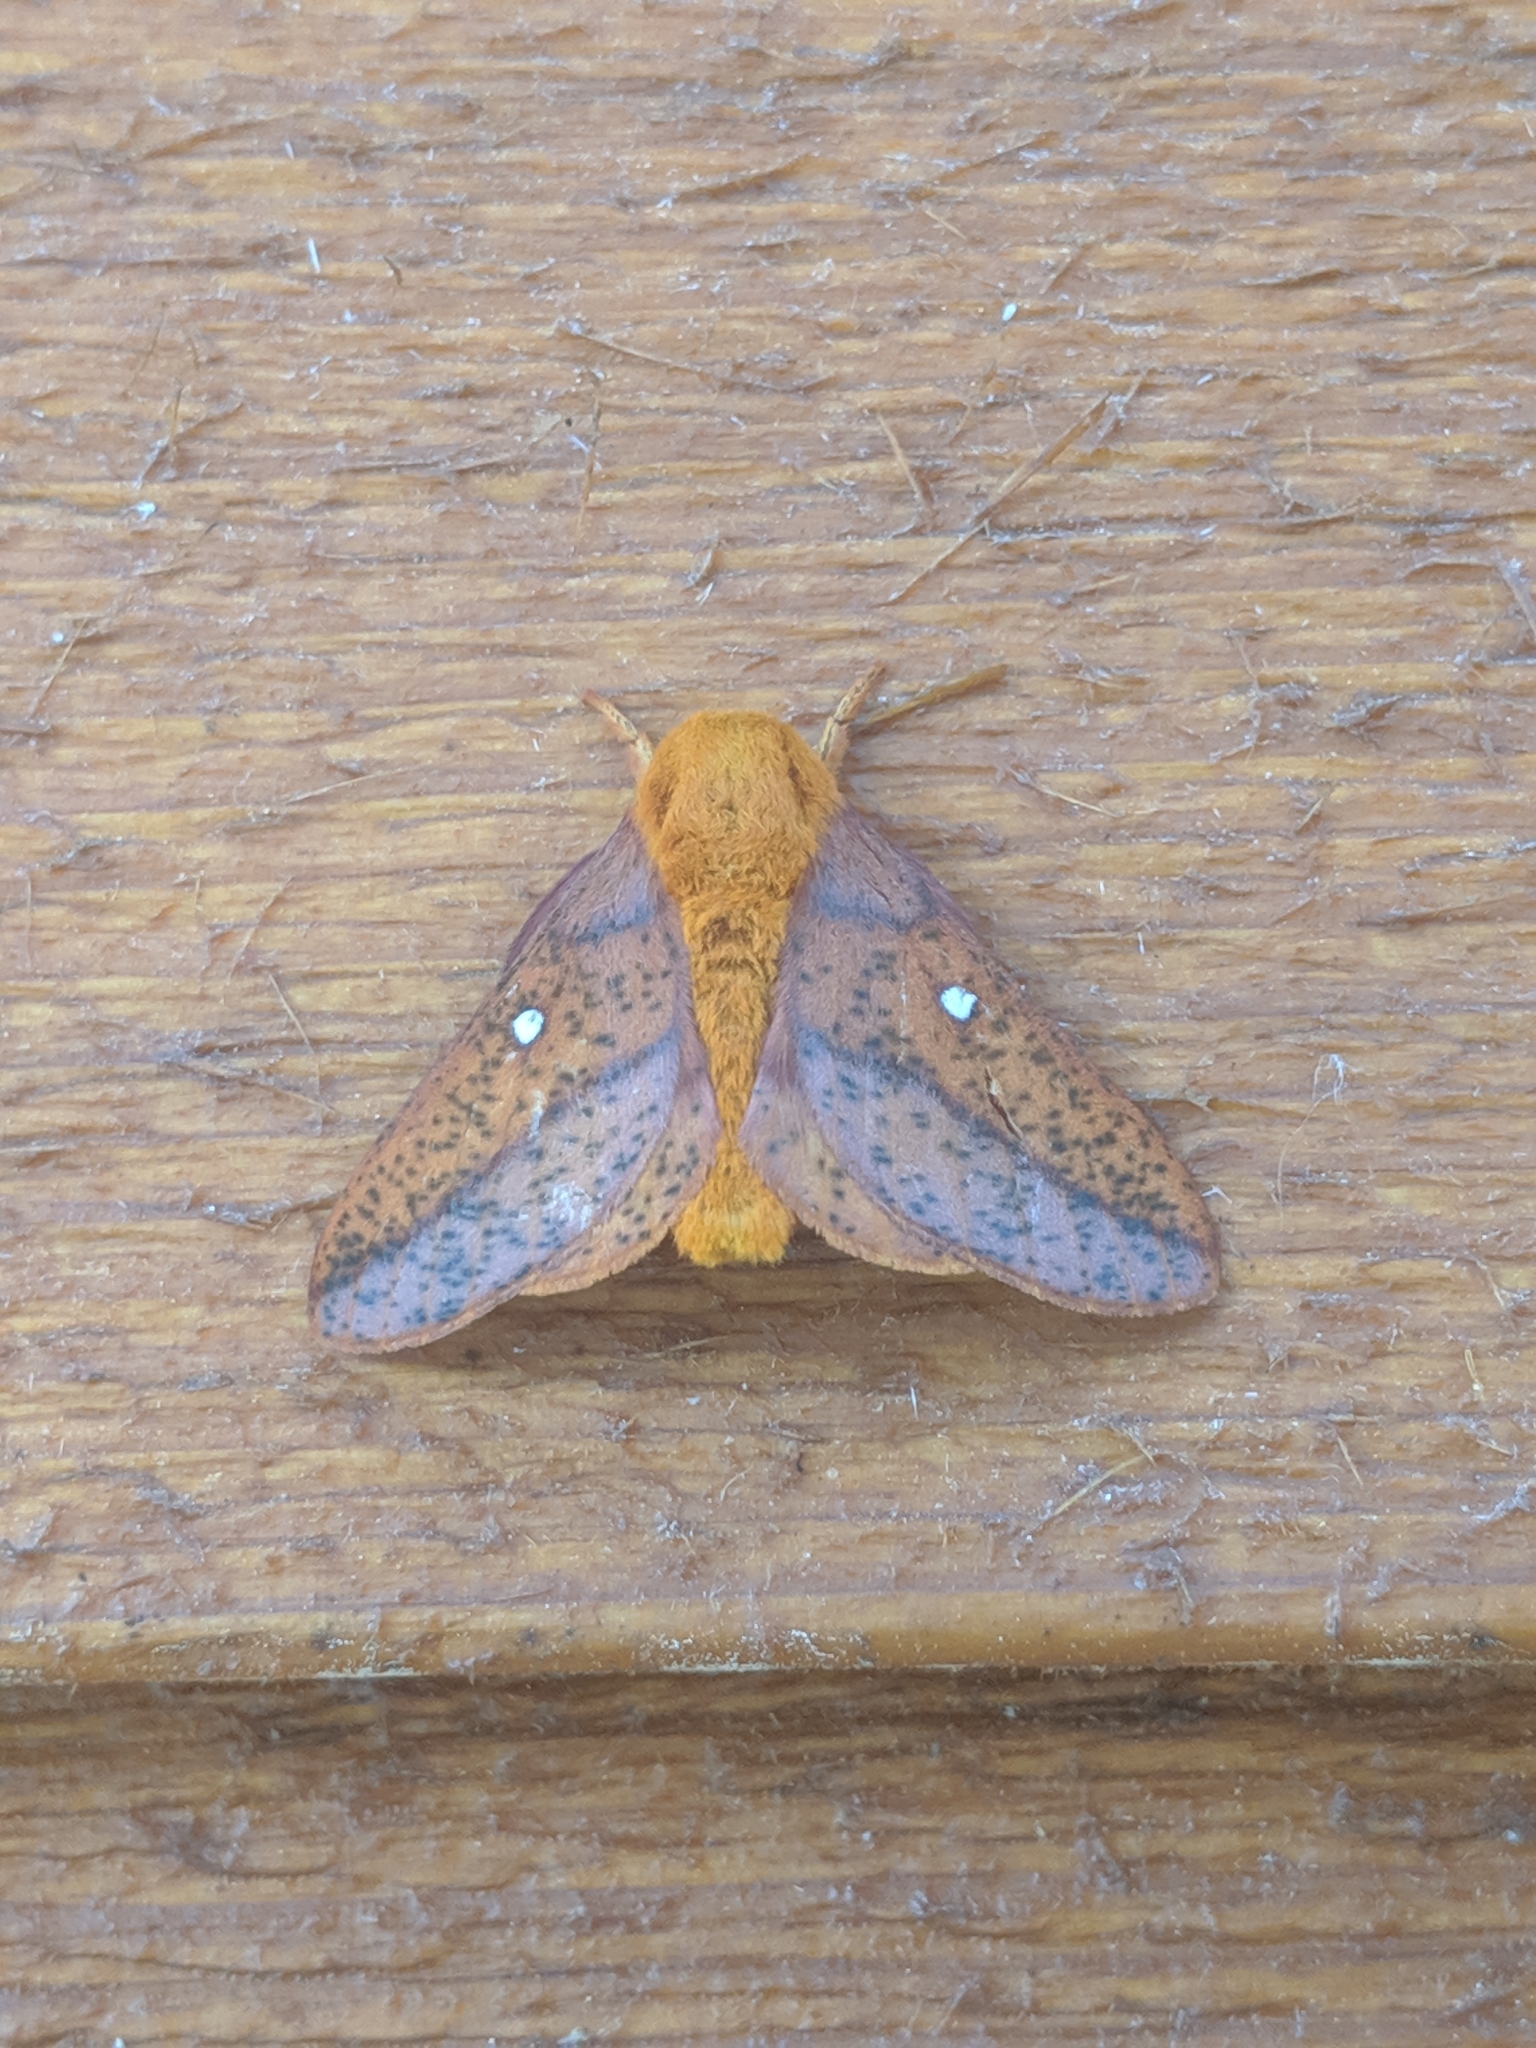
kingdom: Animalia
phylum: Arthropoda
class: Insecta
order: Lepidoptera
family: Saturniidae
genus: Anisota
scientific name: Anisota stigma
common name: Spiny oakworm moth
